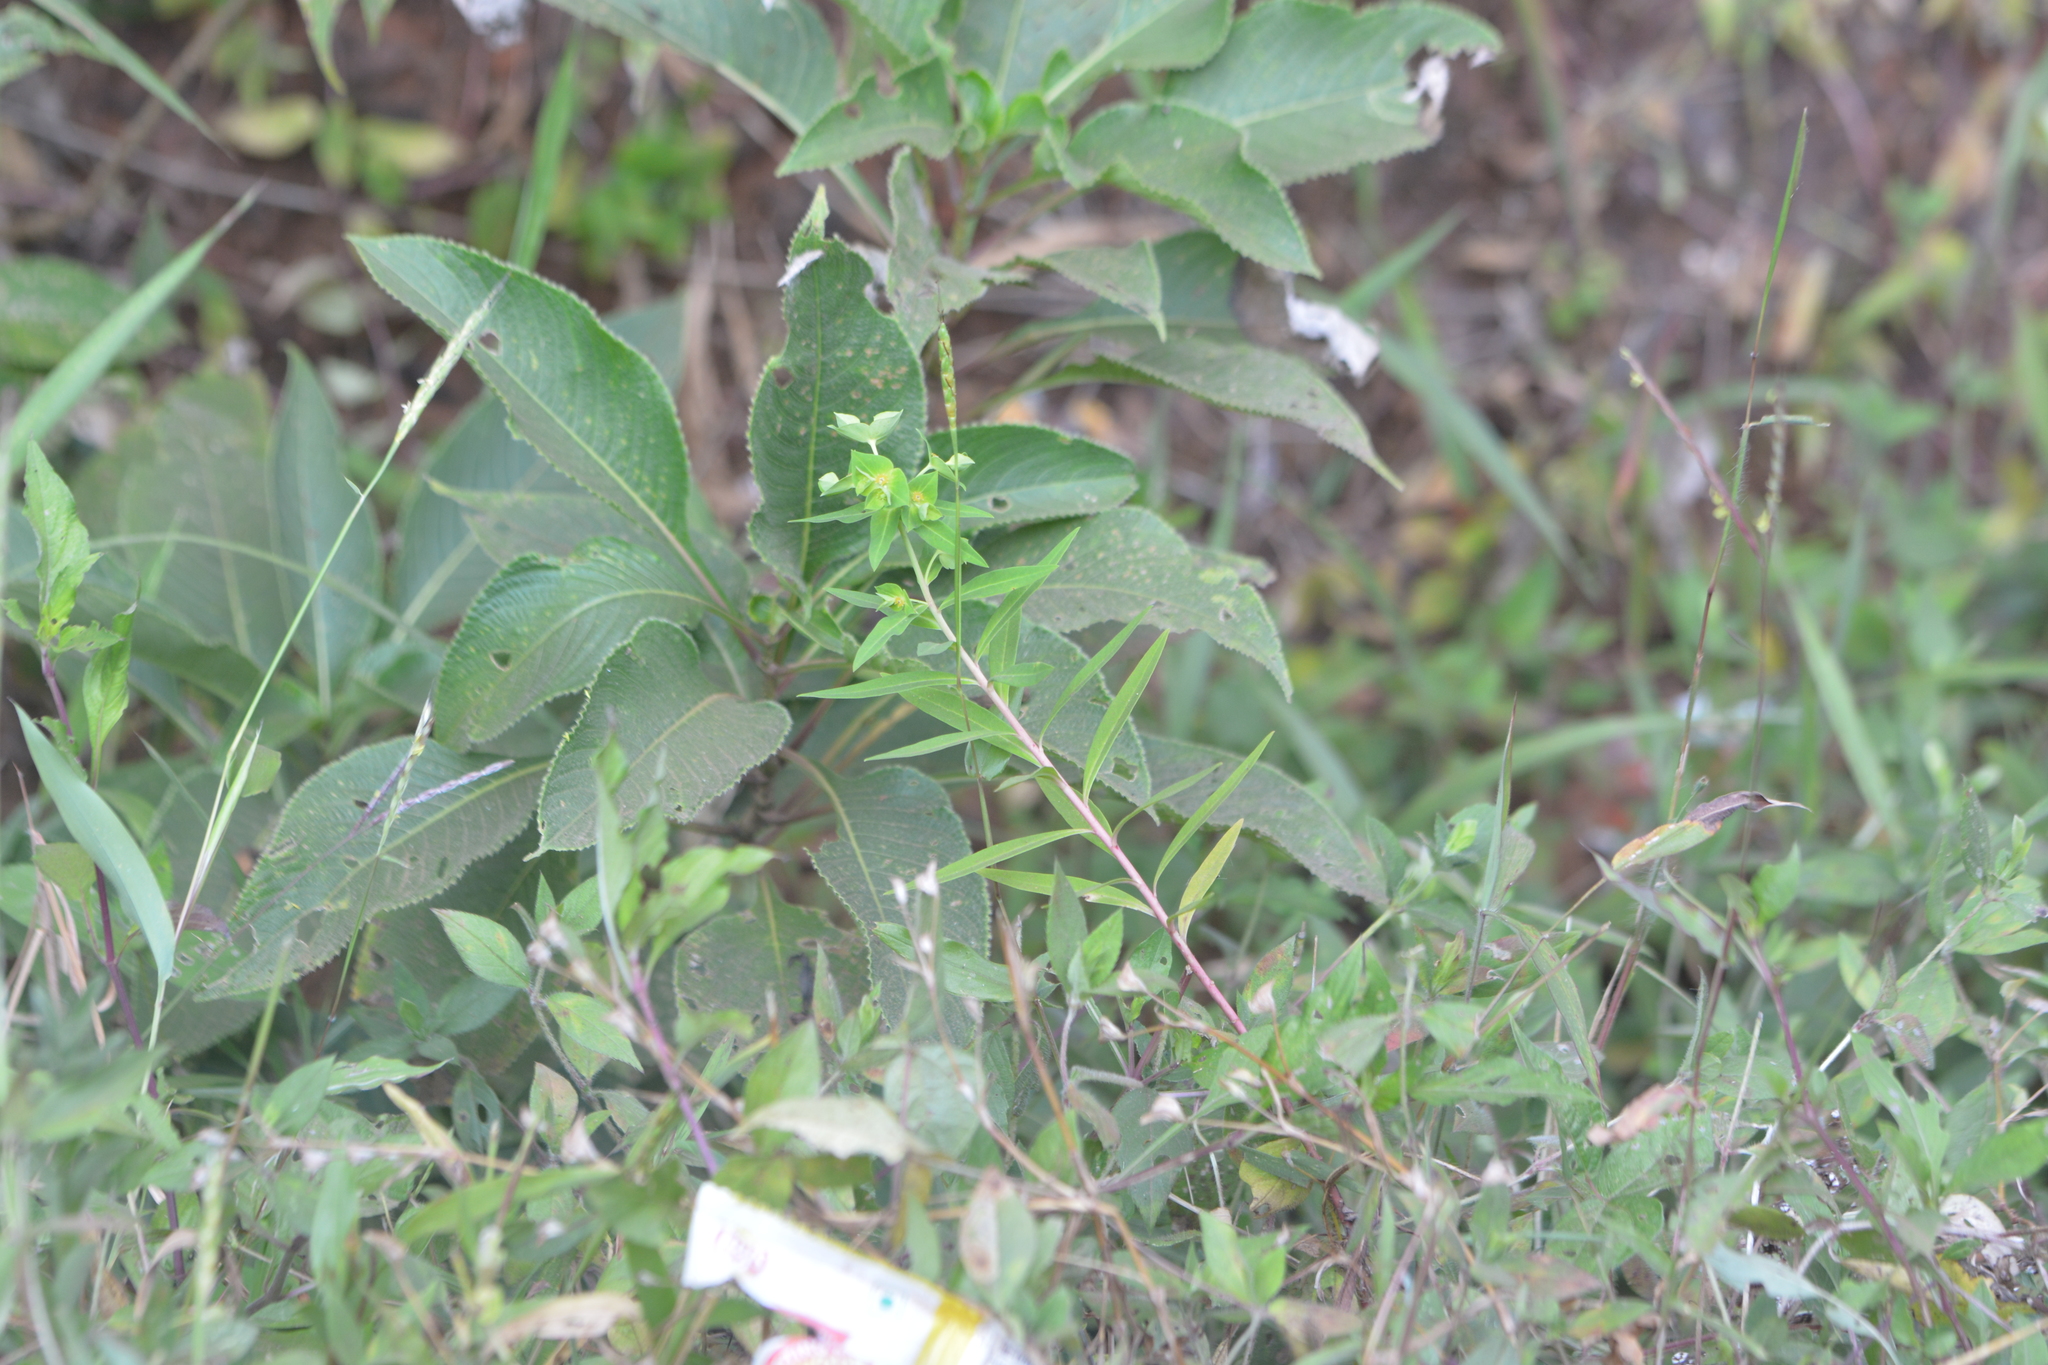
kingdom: Plantae
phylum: Tracheophyta
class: Magnoliopsida
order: Malpighiales
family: Euphorbiaceae
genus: Euphorbia
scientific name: Euphorbia rothiana
